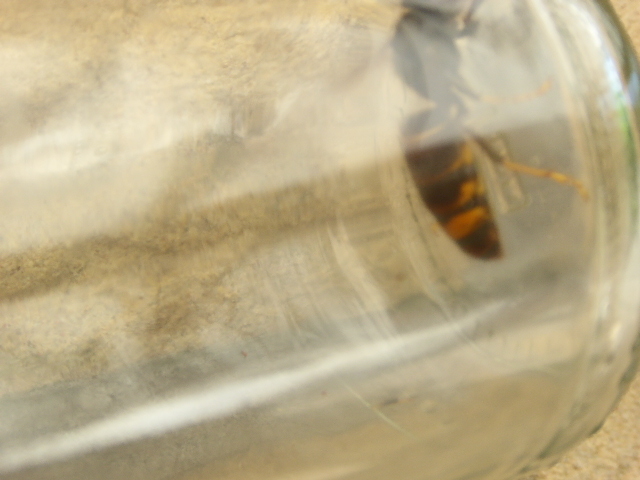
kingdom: Animalia
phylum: Arthropoda
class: Insecta
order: Hymenoptera
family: Vespidae
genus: Vespa
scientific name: Vespa velutina
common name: Asian hornet
